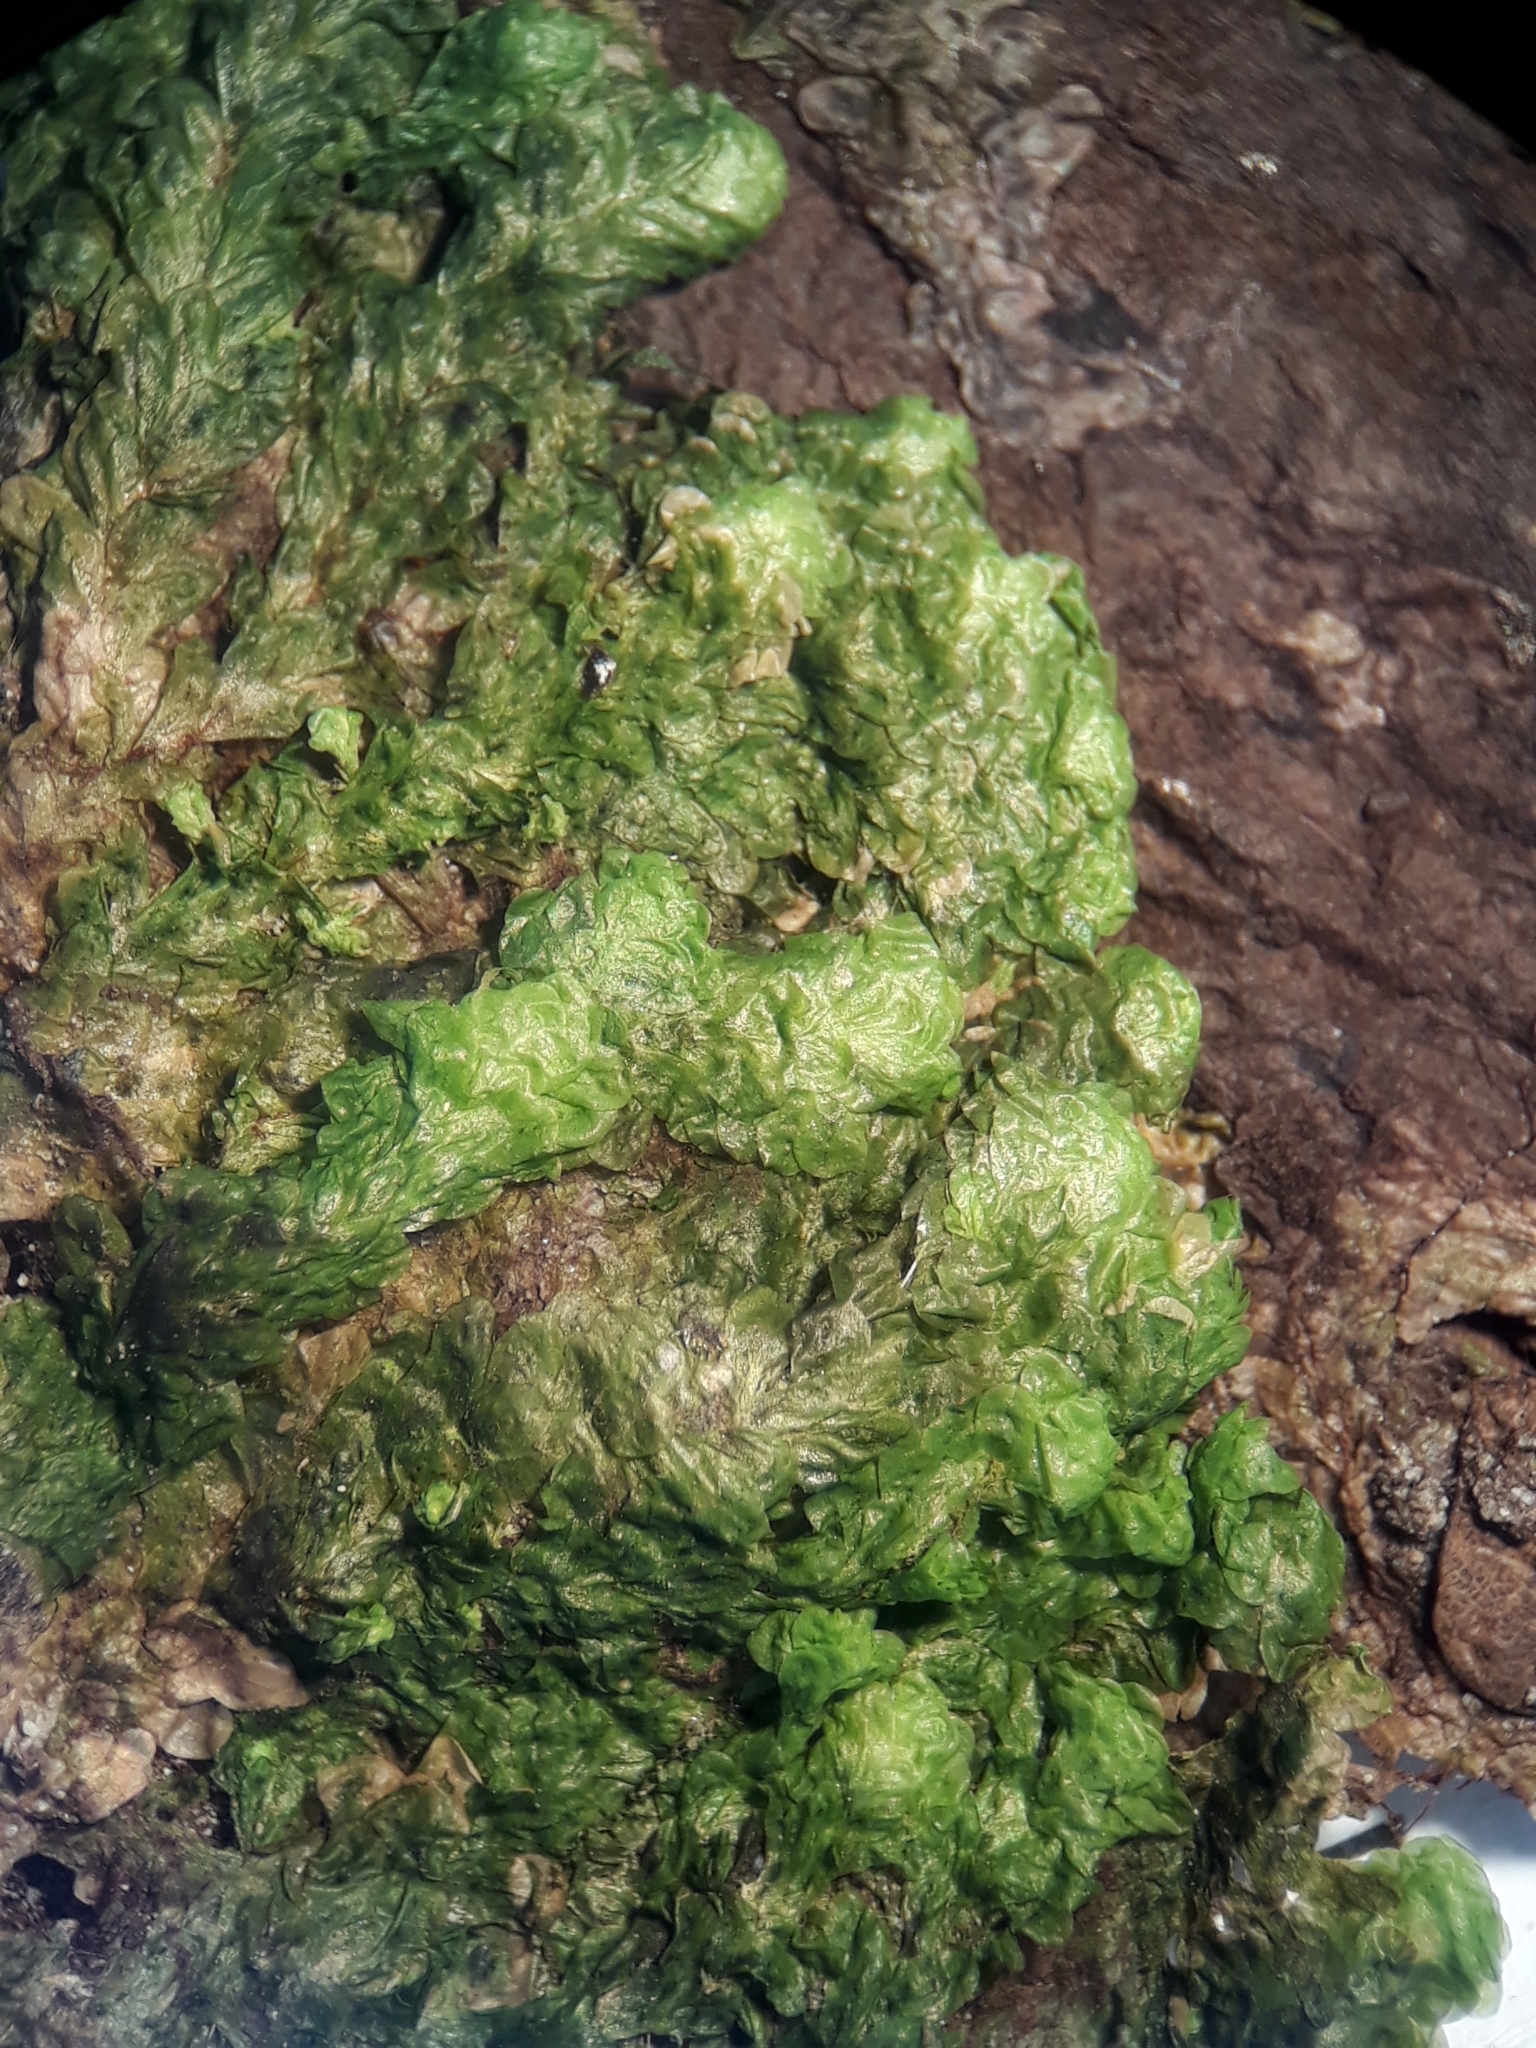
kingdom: Plantae
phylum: Bryophyta
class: Bryopsida
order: Hookeriales
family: Daltoniaceae
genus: Distichophyllum
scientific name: Distichophyllum microcarpon
